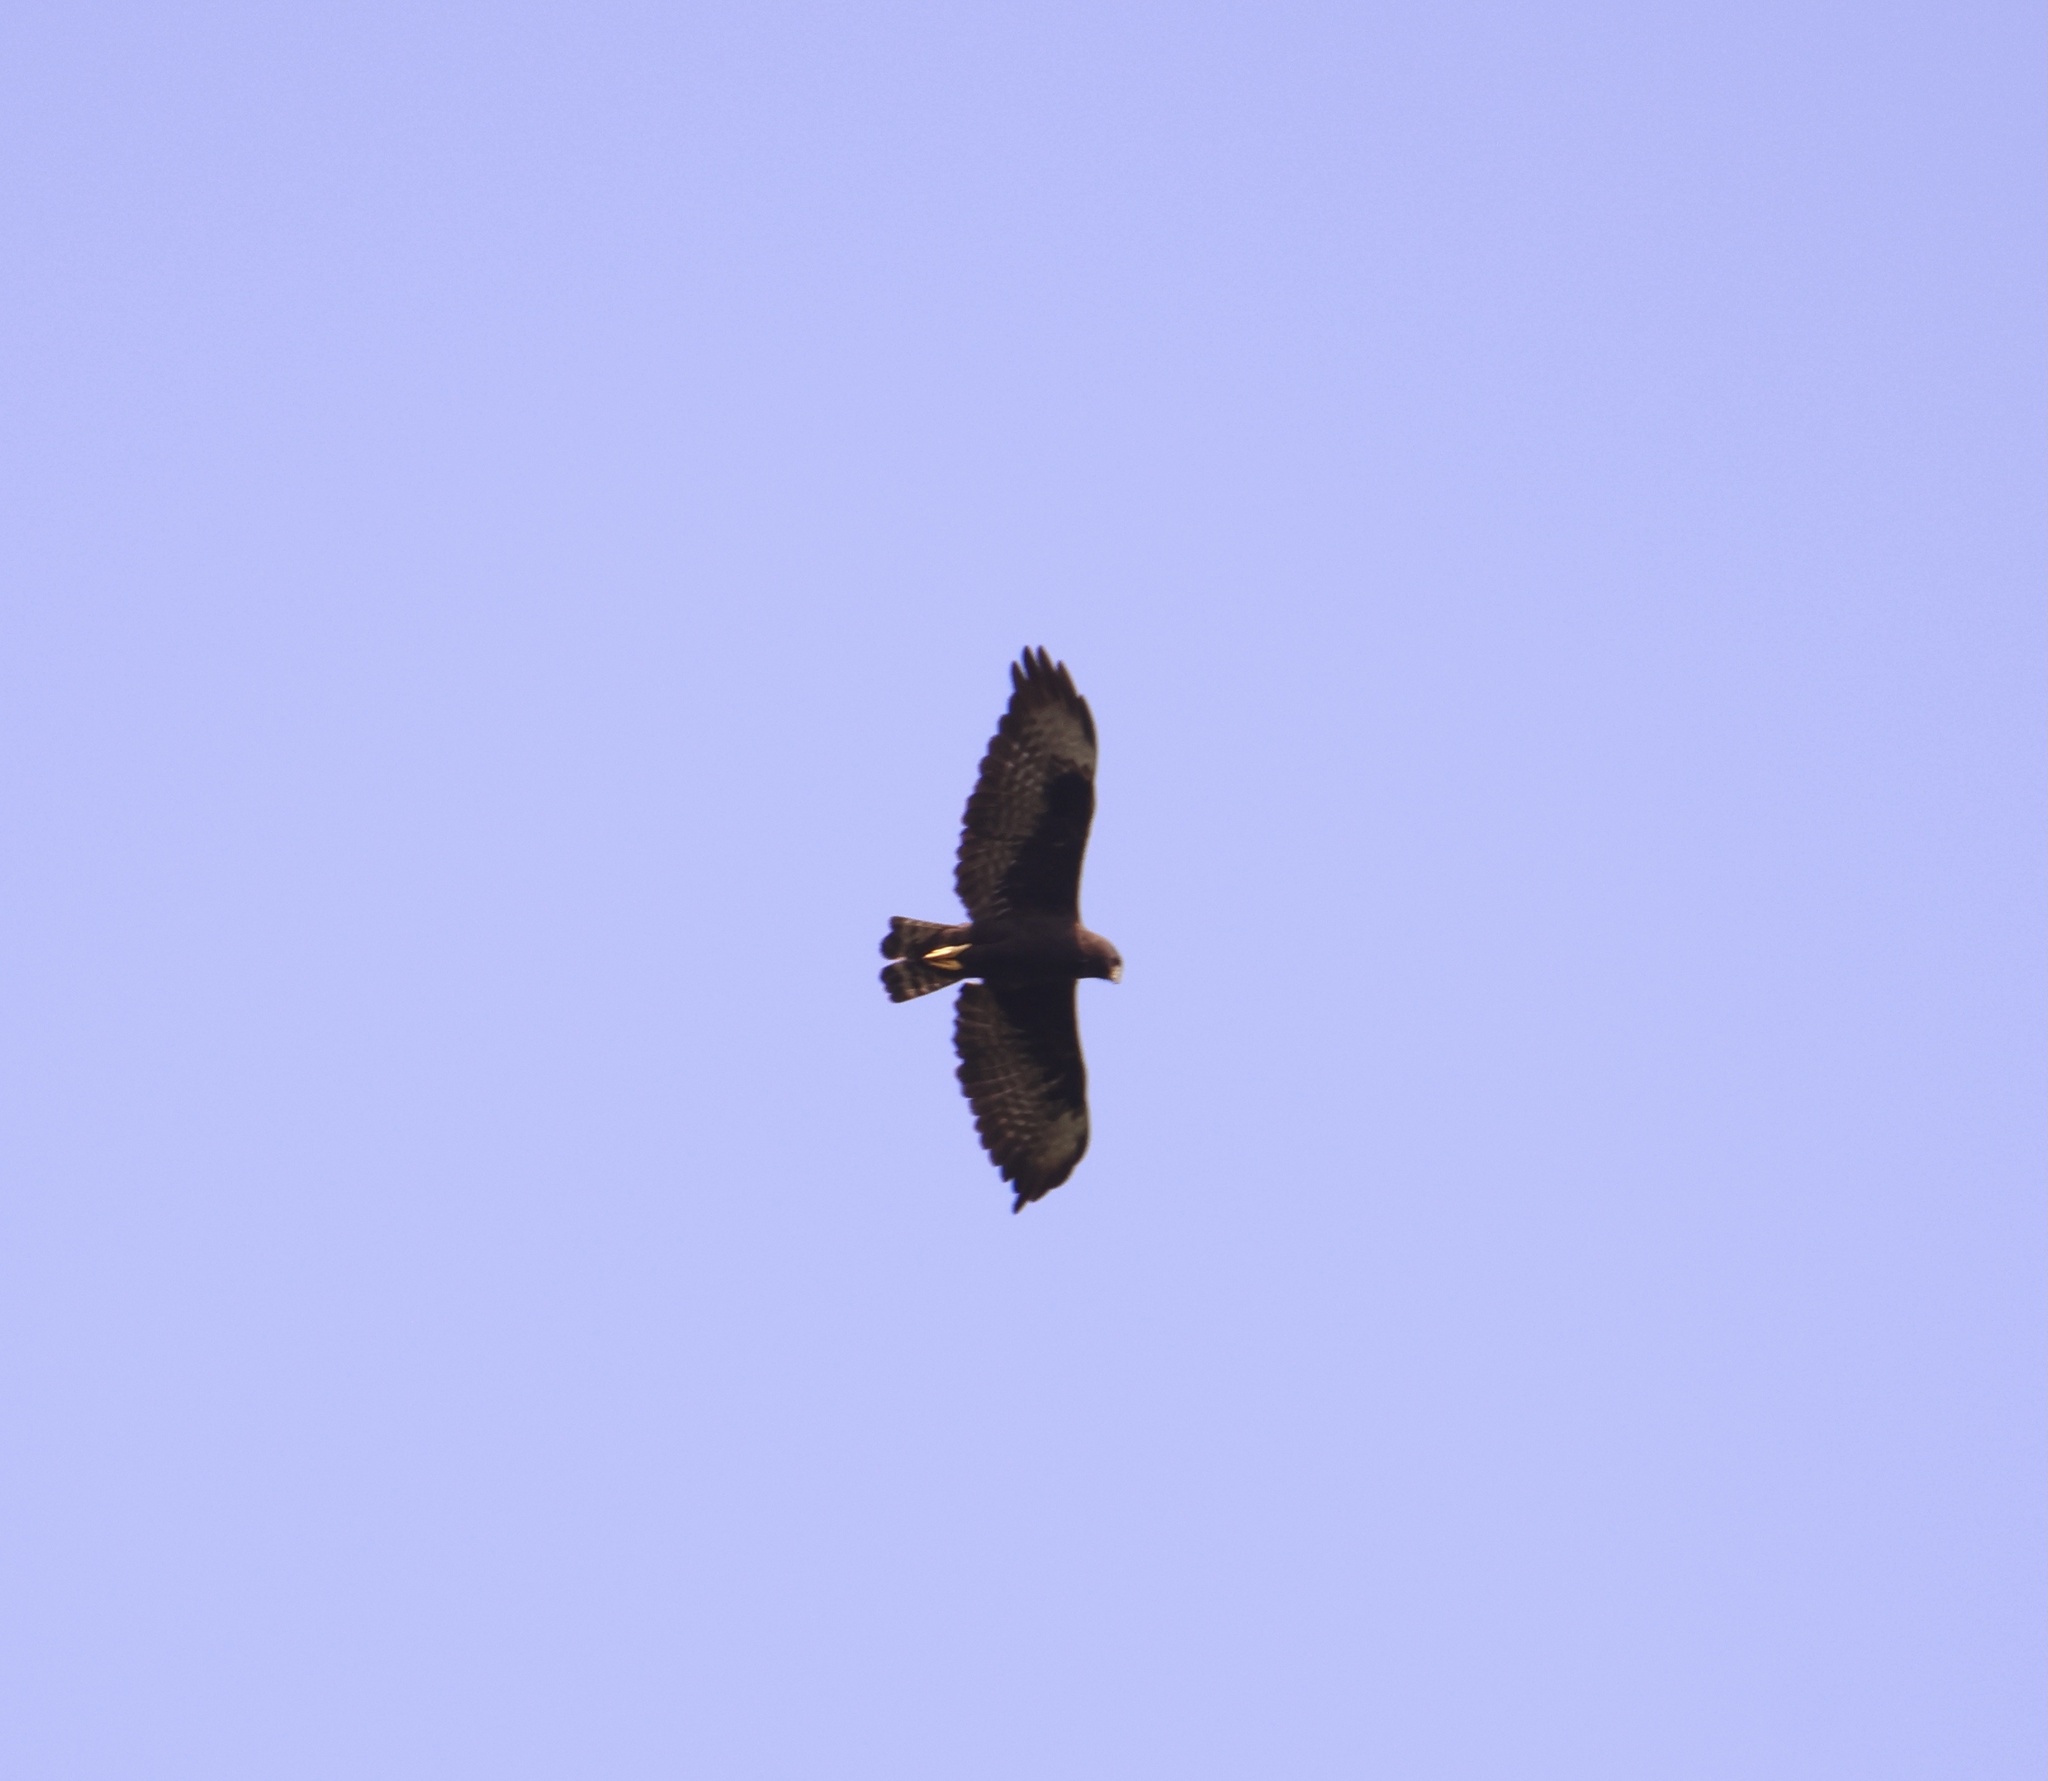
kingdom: Animalia
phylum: Chordata
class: Aves
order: Accipitriformes
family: Accipitridae
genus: Buteo
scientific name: Buteo brachyurus
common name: Short-tailed hawk
